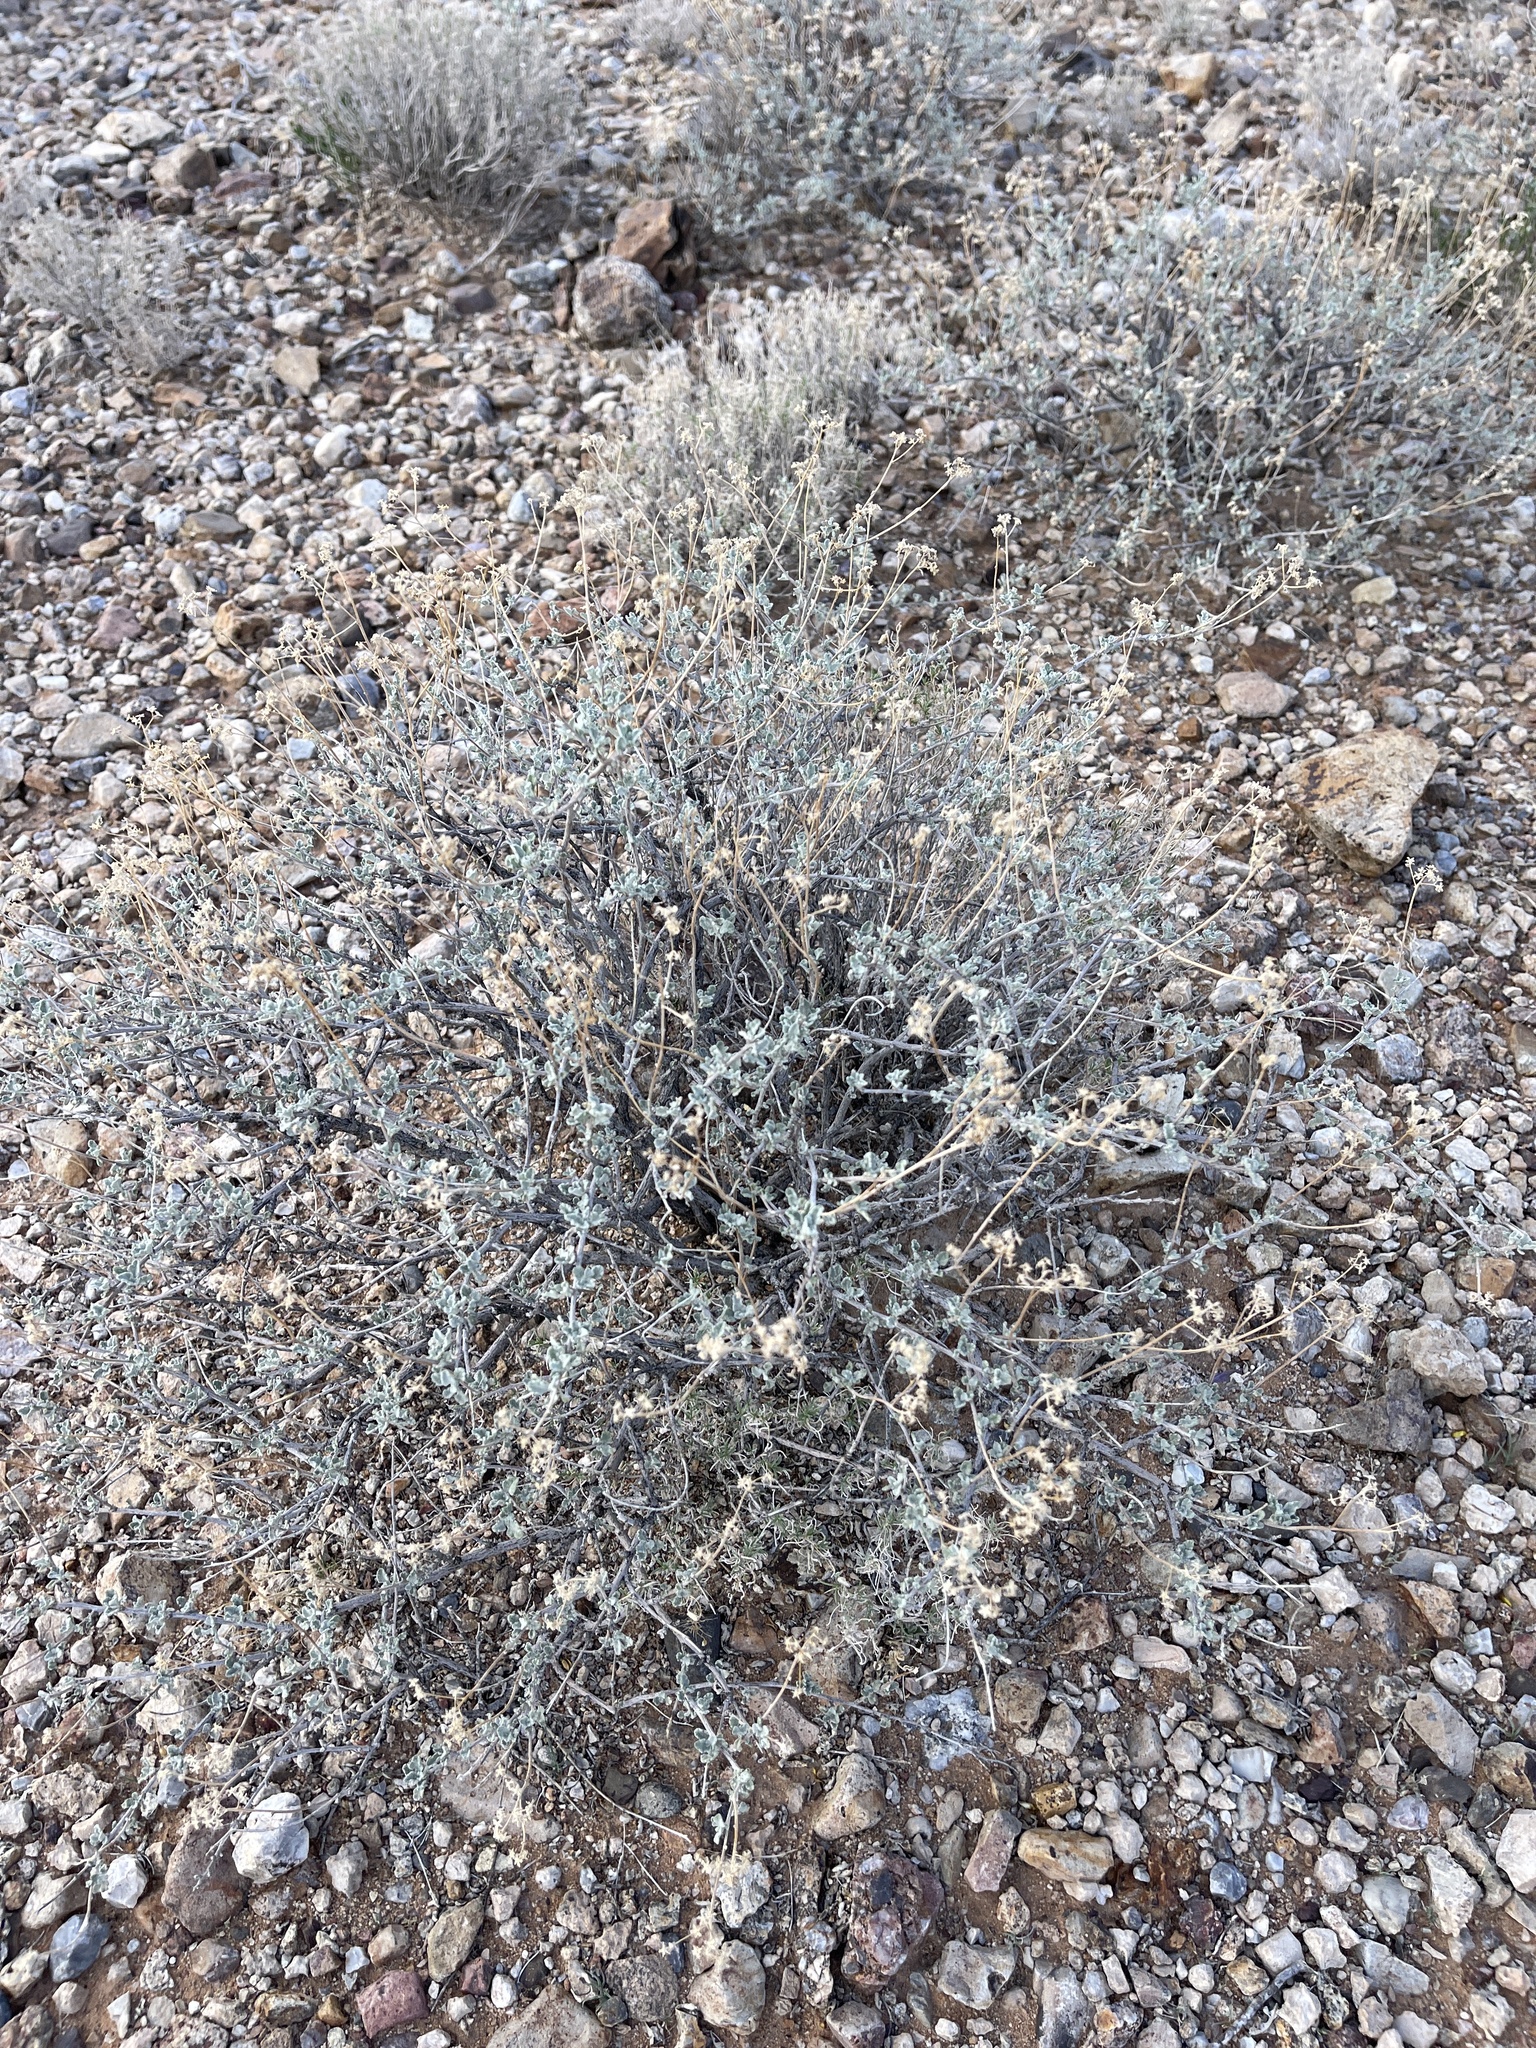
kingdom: Plantae
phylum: Tracheophyta
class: Magnoliopsida
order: Asterales
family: Asteraceae
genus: Parthenium
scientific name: Parthenium incanum
